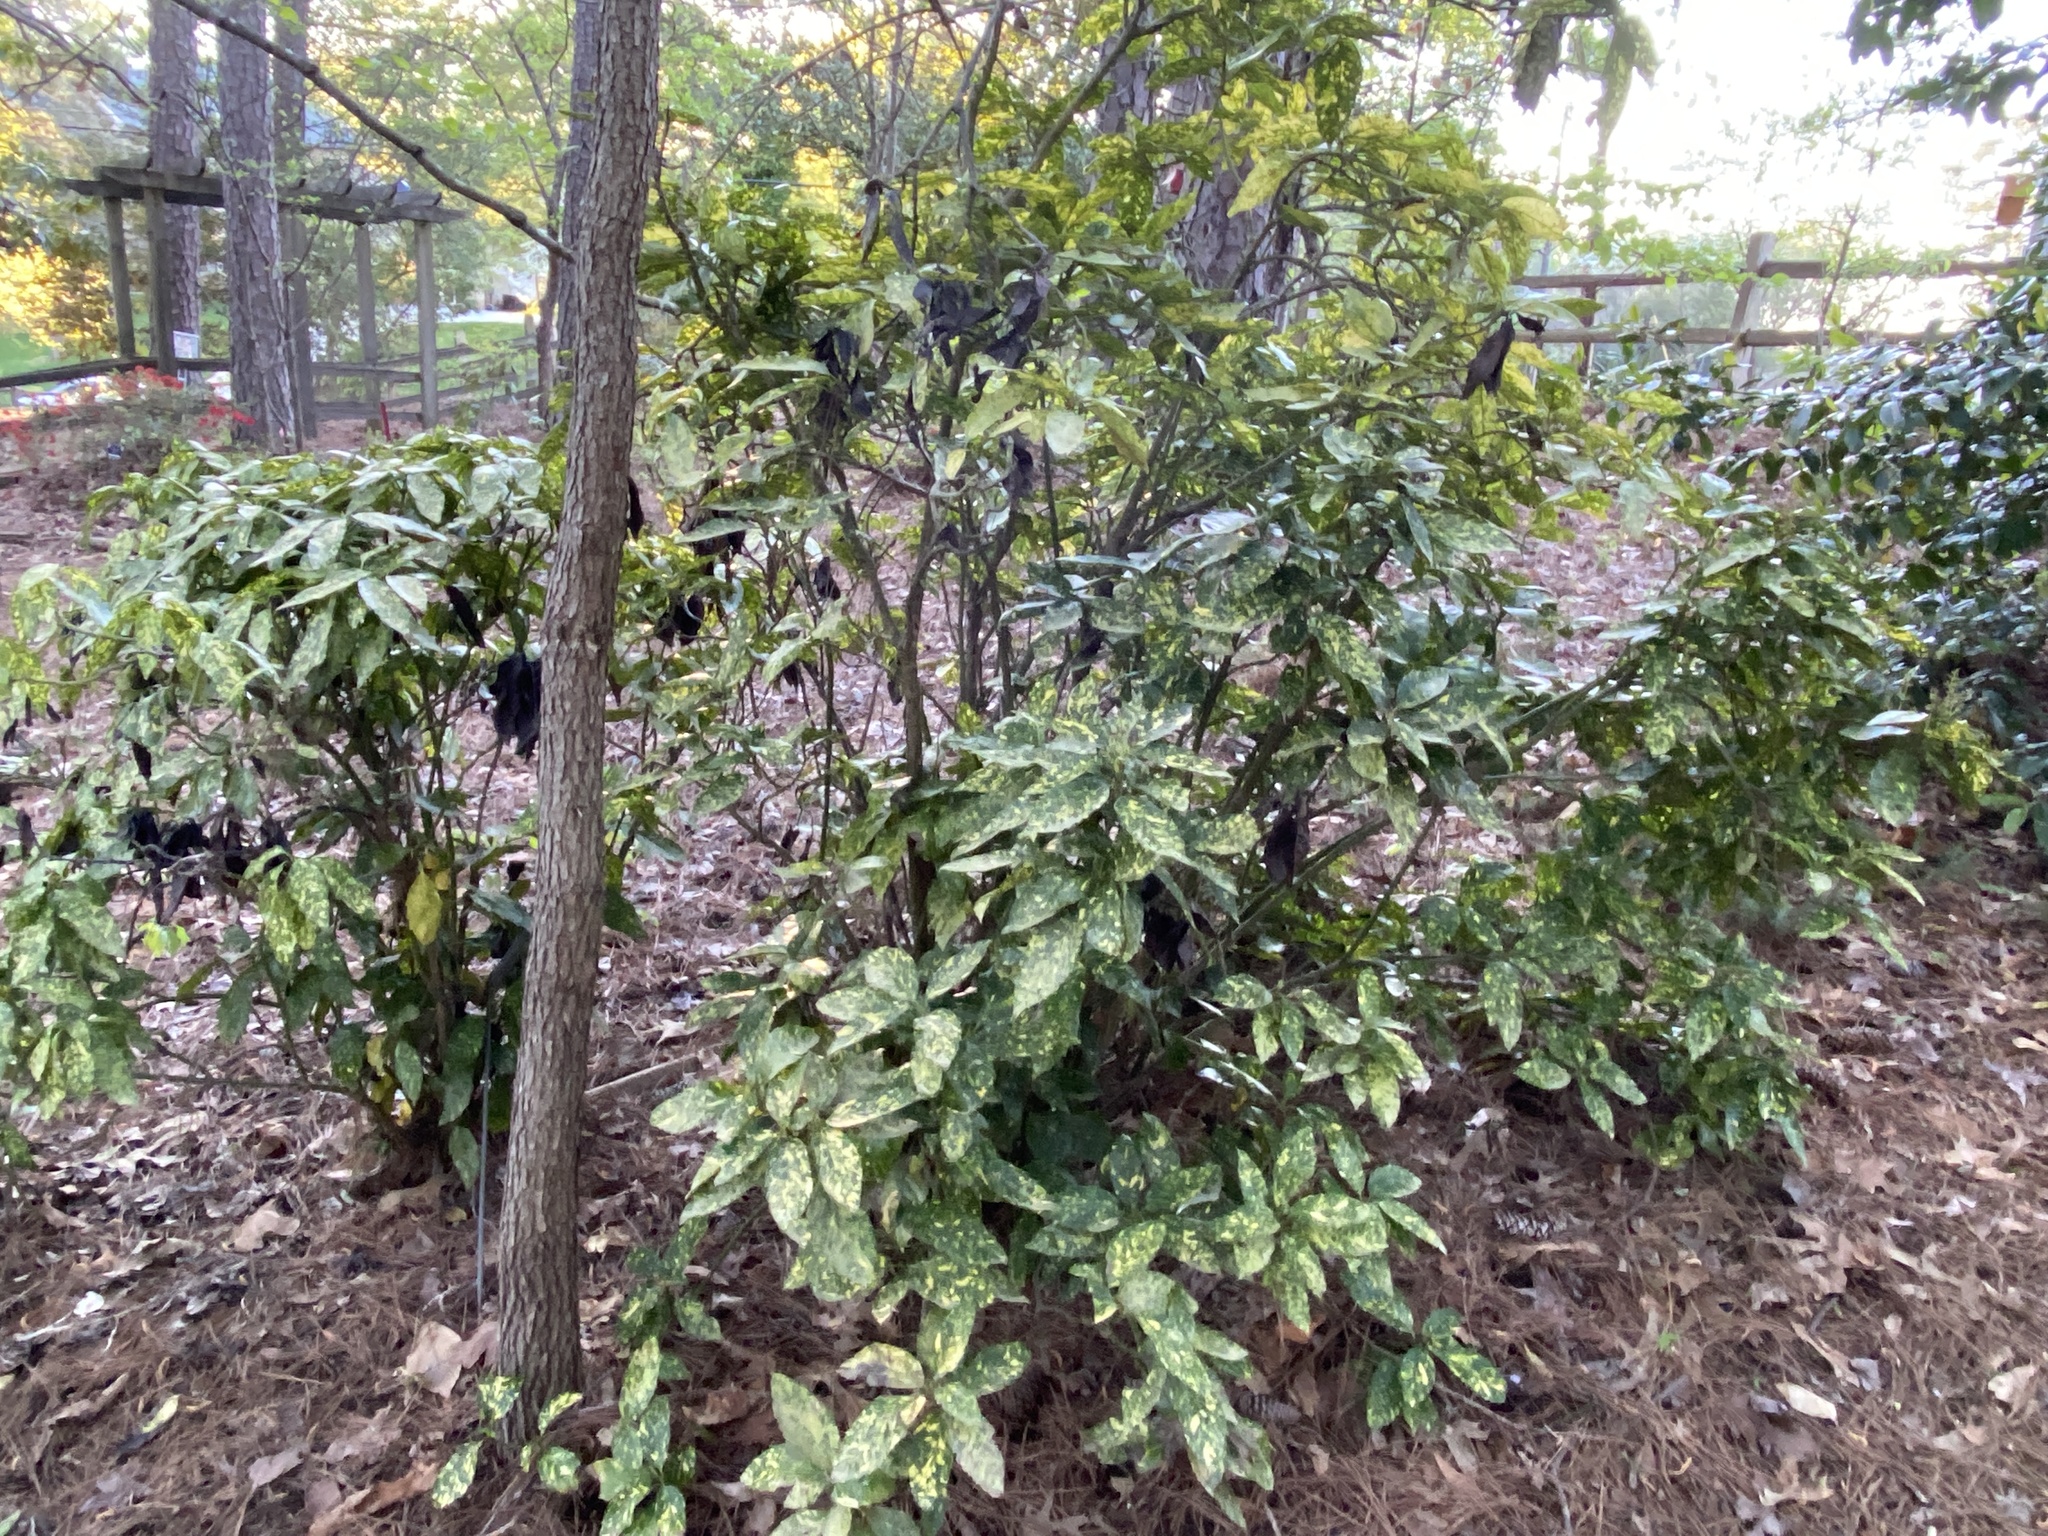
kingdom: Plantae
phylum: Tracheophyta
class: Magnoliopsida
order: Garryales
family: Garryaceae
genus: Aucuba
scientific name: Aucuba japonica
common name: Spotted-laurel
